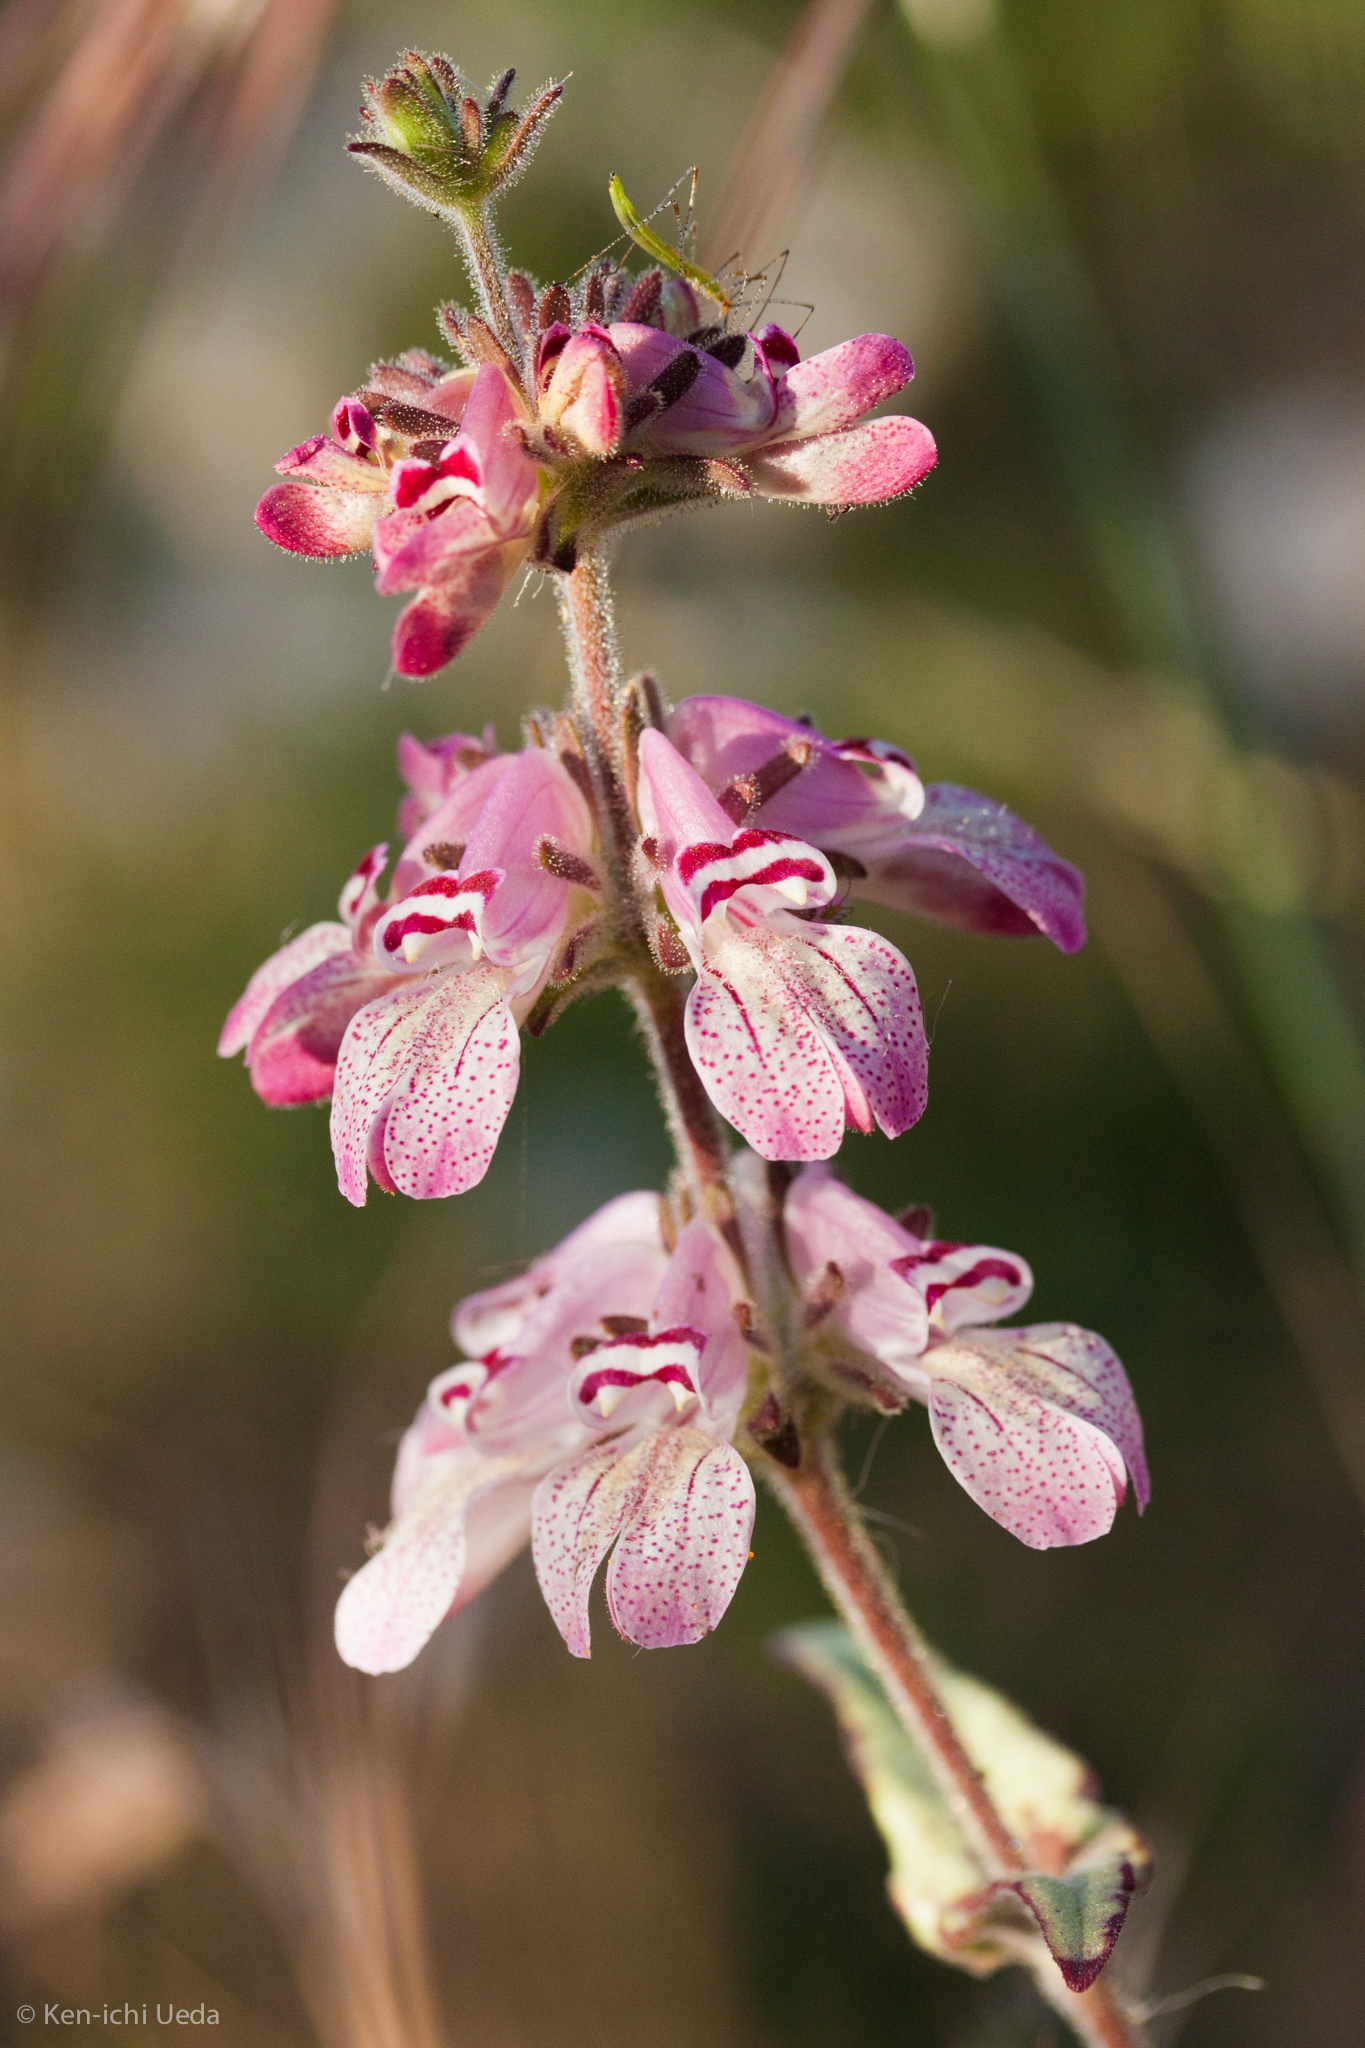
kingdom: Plantae
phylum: Tracheophyta
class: Magnoliopsida
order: Lamiales
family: Plantaginaceae
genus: Collinsia
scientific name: Collinsia tinctoria
